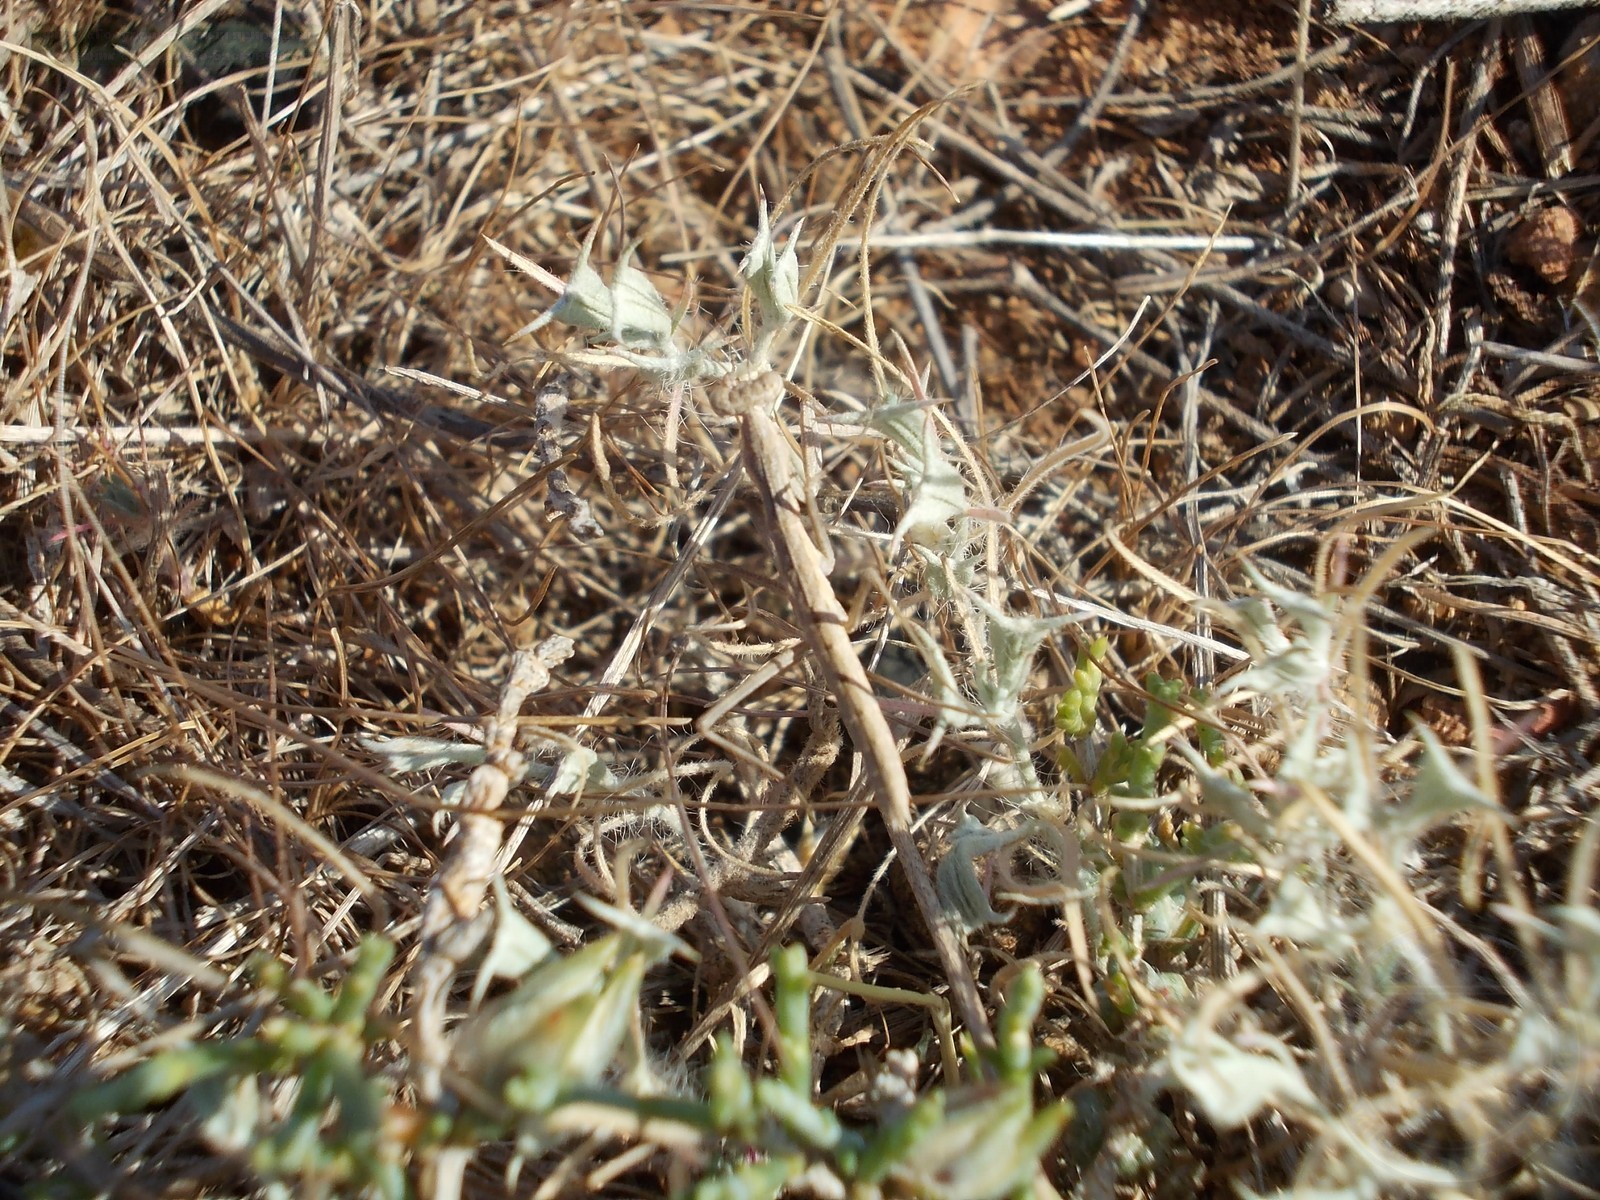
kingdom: Plantae
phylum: Tracheophyta
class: Magnoliopsida
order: Caryophyllales
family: Amaranthaceae
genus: Ceratocarpus
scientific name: Ceratocarpus arenarius
